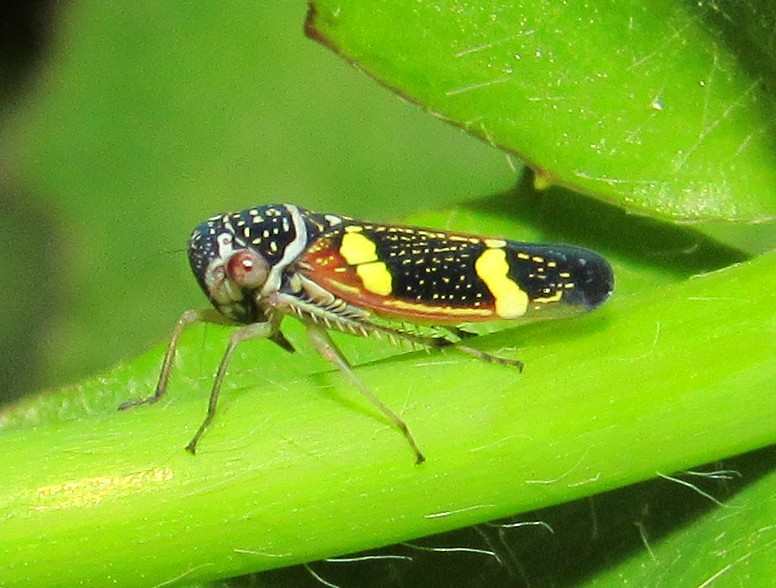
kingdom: Animalia
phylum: Arthropoda
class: Insecta
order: Hemiptera
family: Cicadellidae
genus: Macugonalia
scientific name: Macugonalia leucomelas
